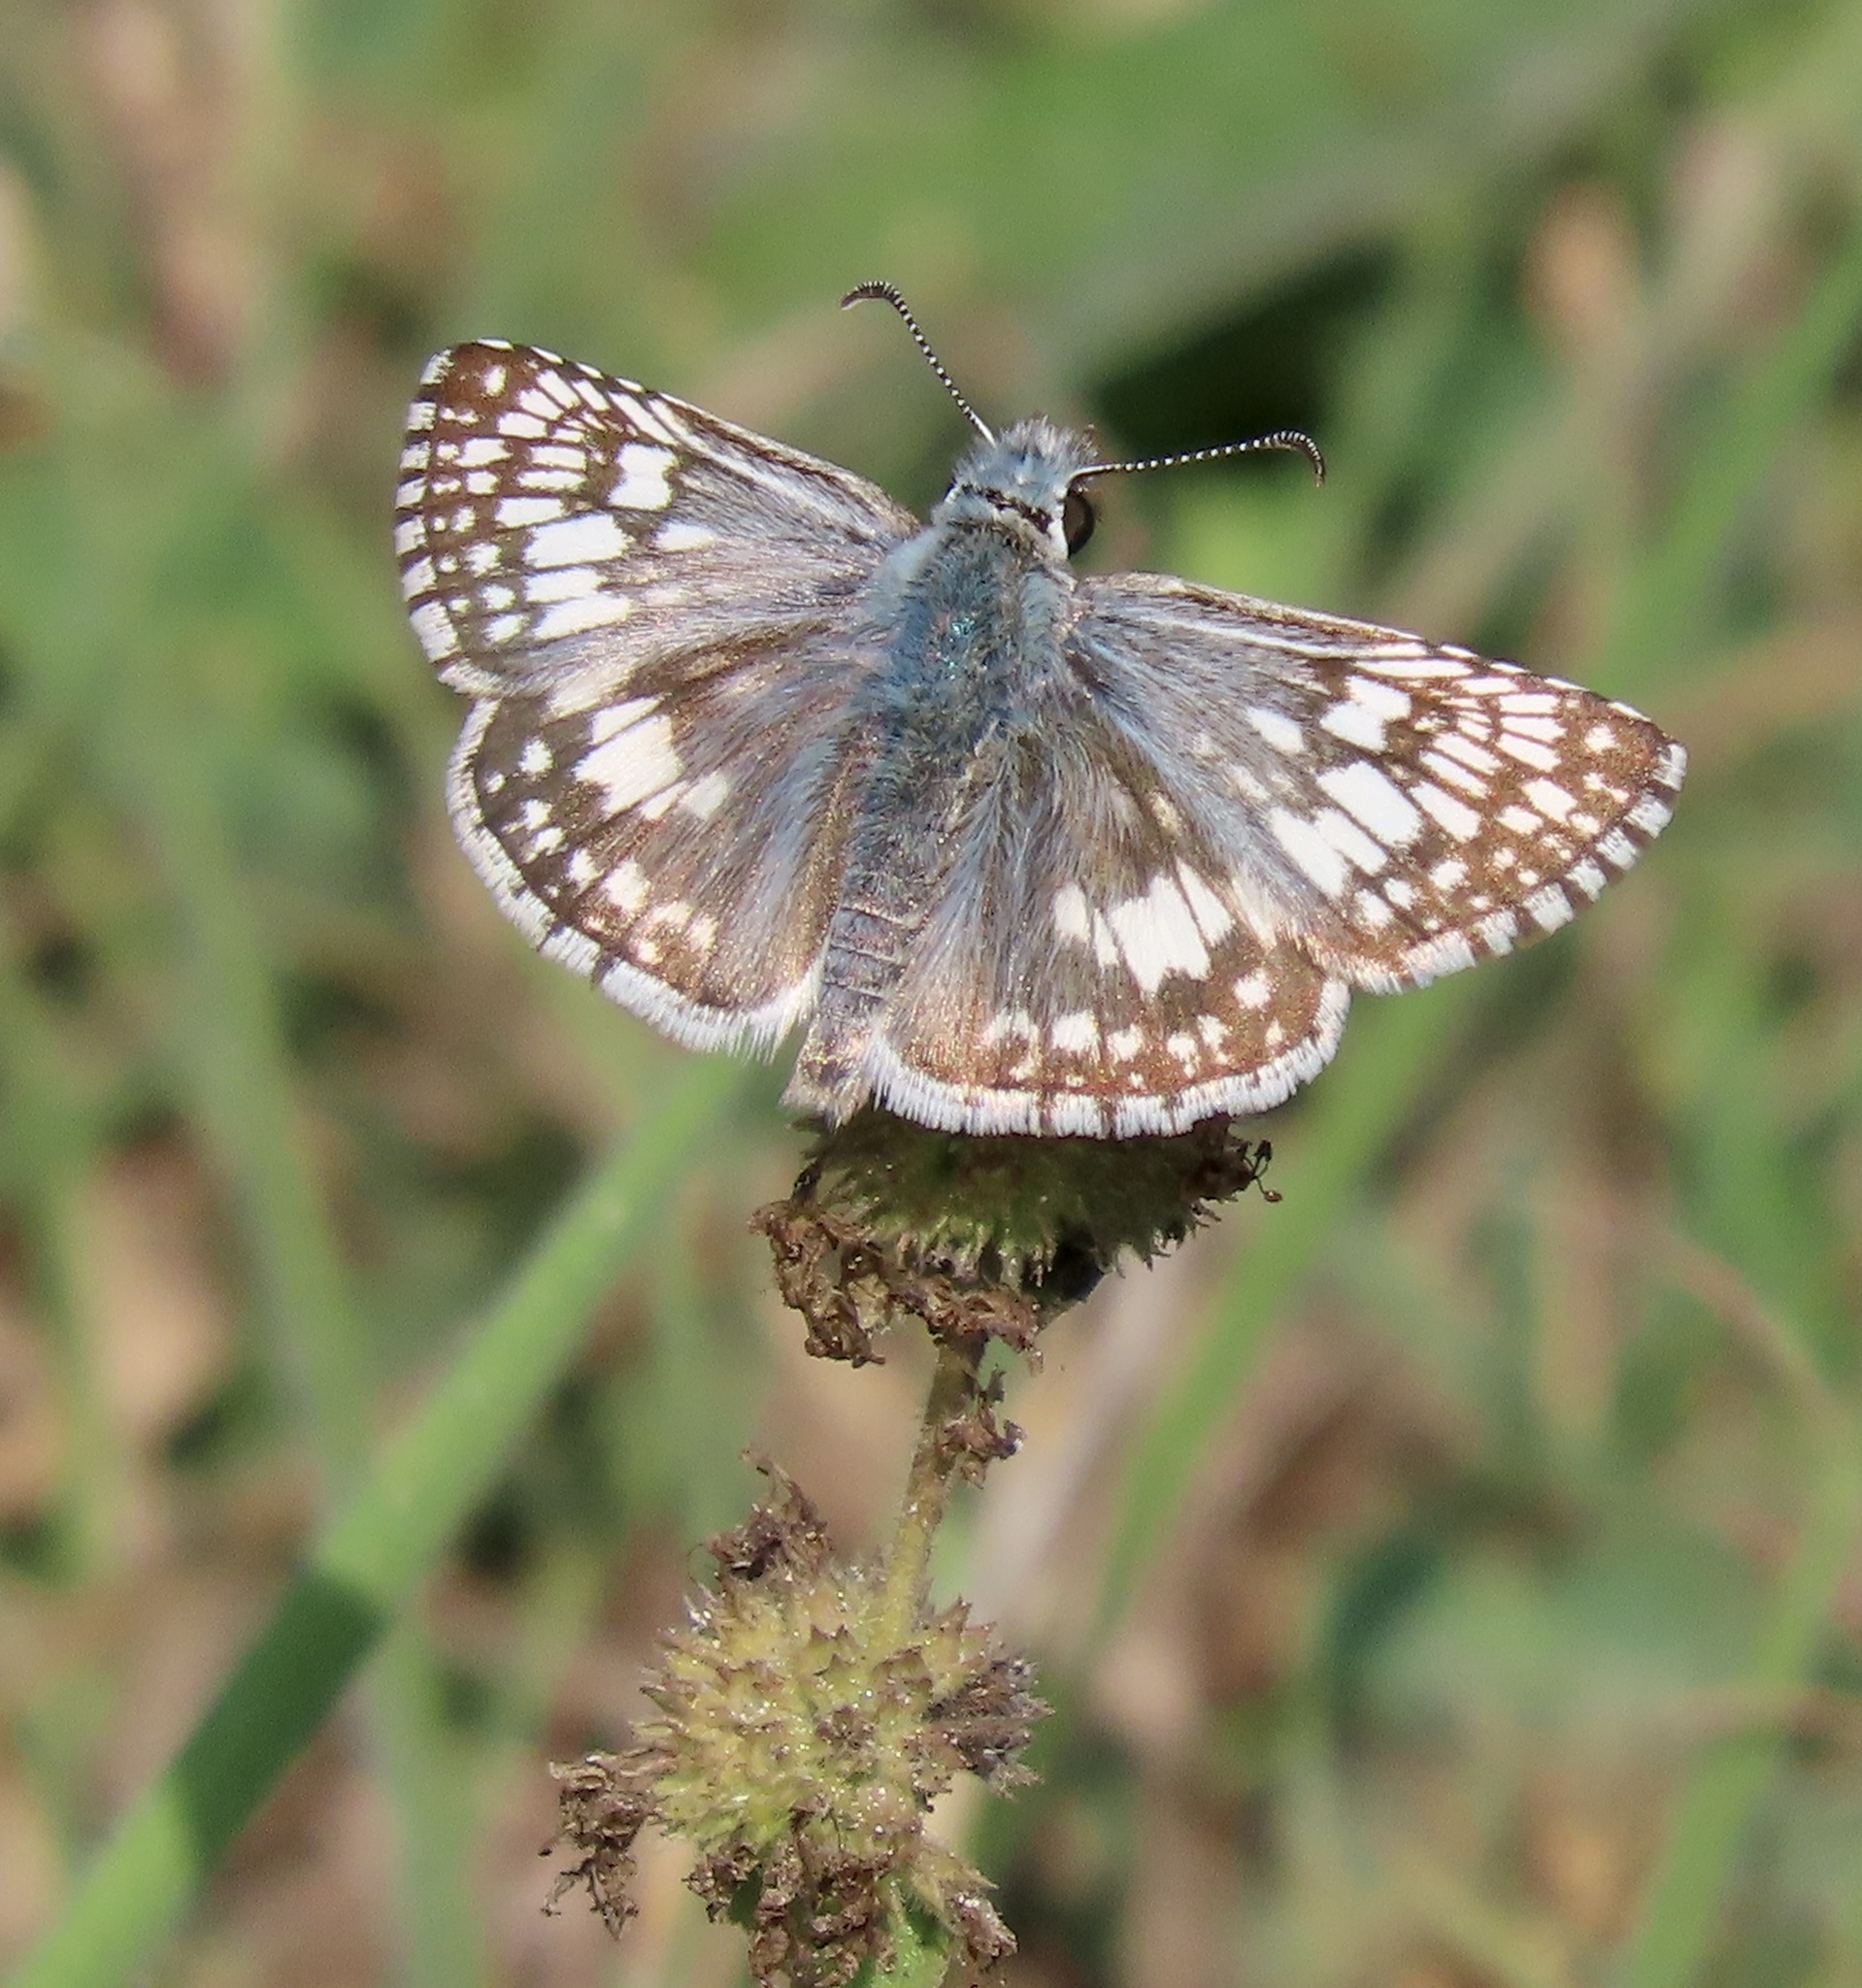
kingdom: Animalia
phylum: Arthropoda
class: Insecta
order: Lepidoptera
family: Hesperiidae
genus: Burnsius
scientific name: Burnsius communis
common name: Common checkered-skipper
